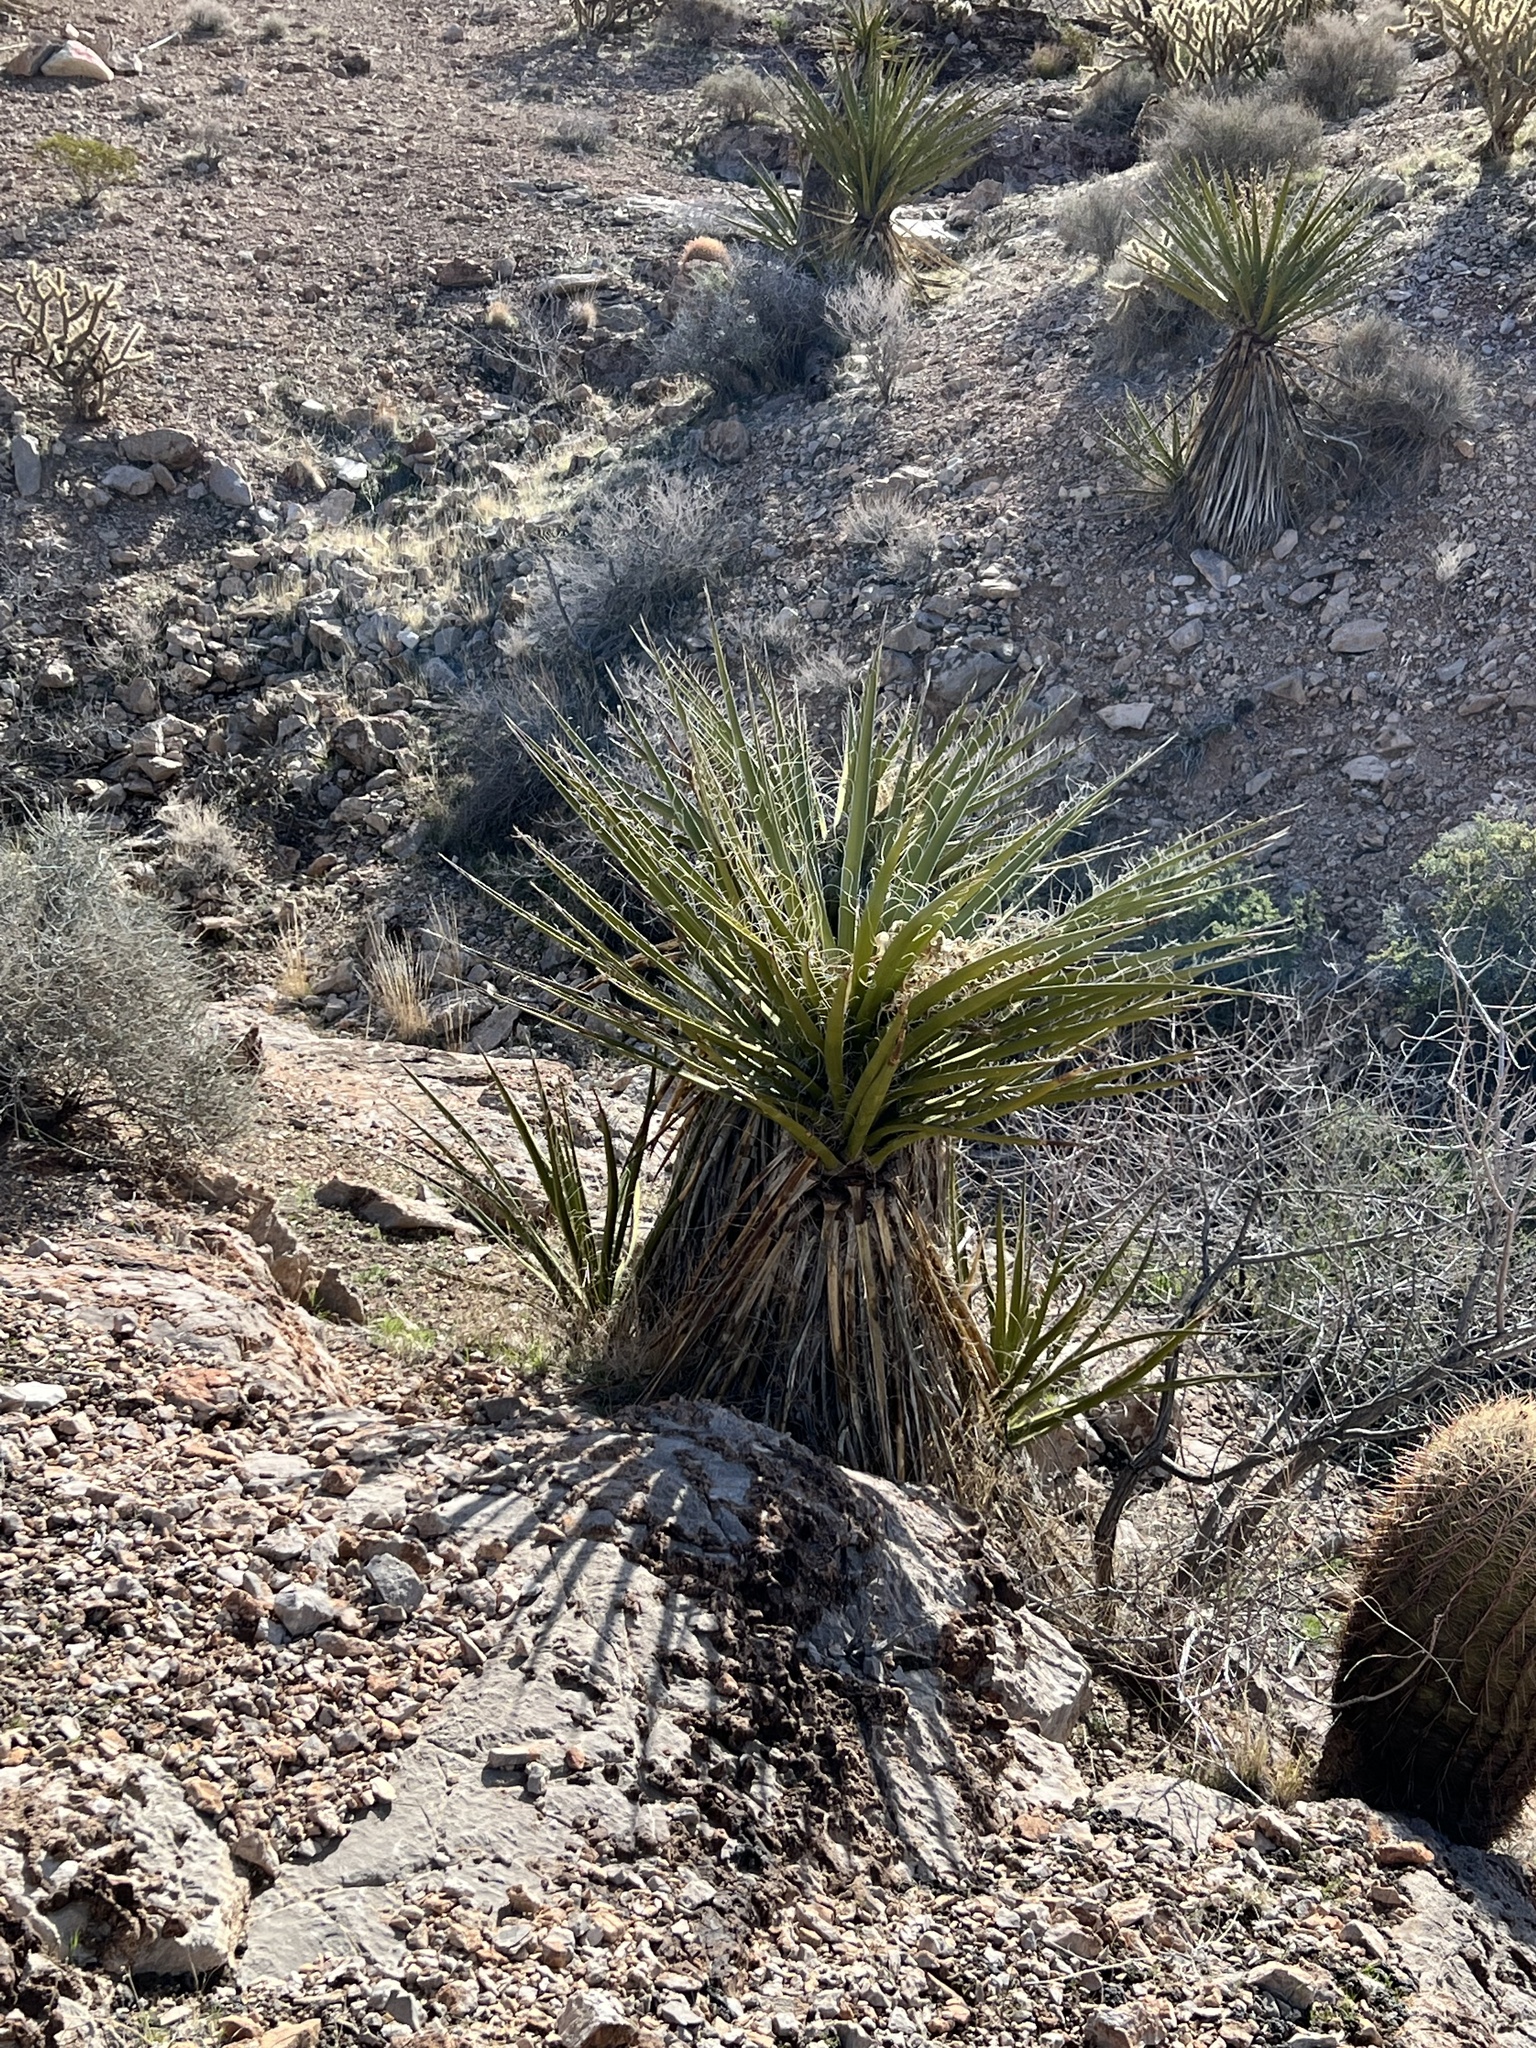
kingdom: Plantae
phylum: Tracheophyta
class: Liliopsida
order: Asparagales
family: Asparagaceae
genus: Yucca
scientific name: Yucca schidigera
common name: Mojave yucca
